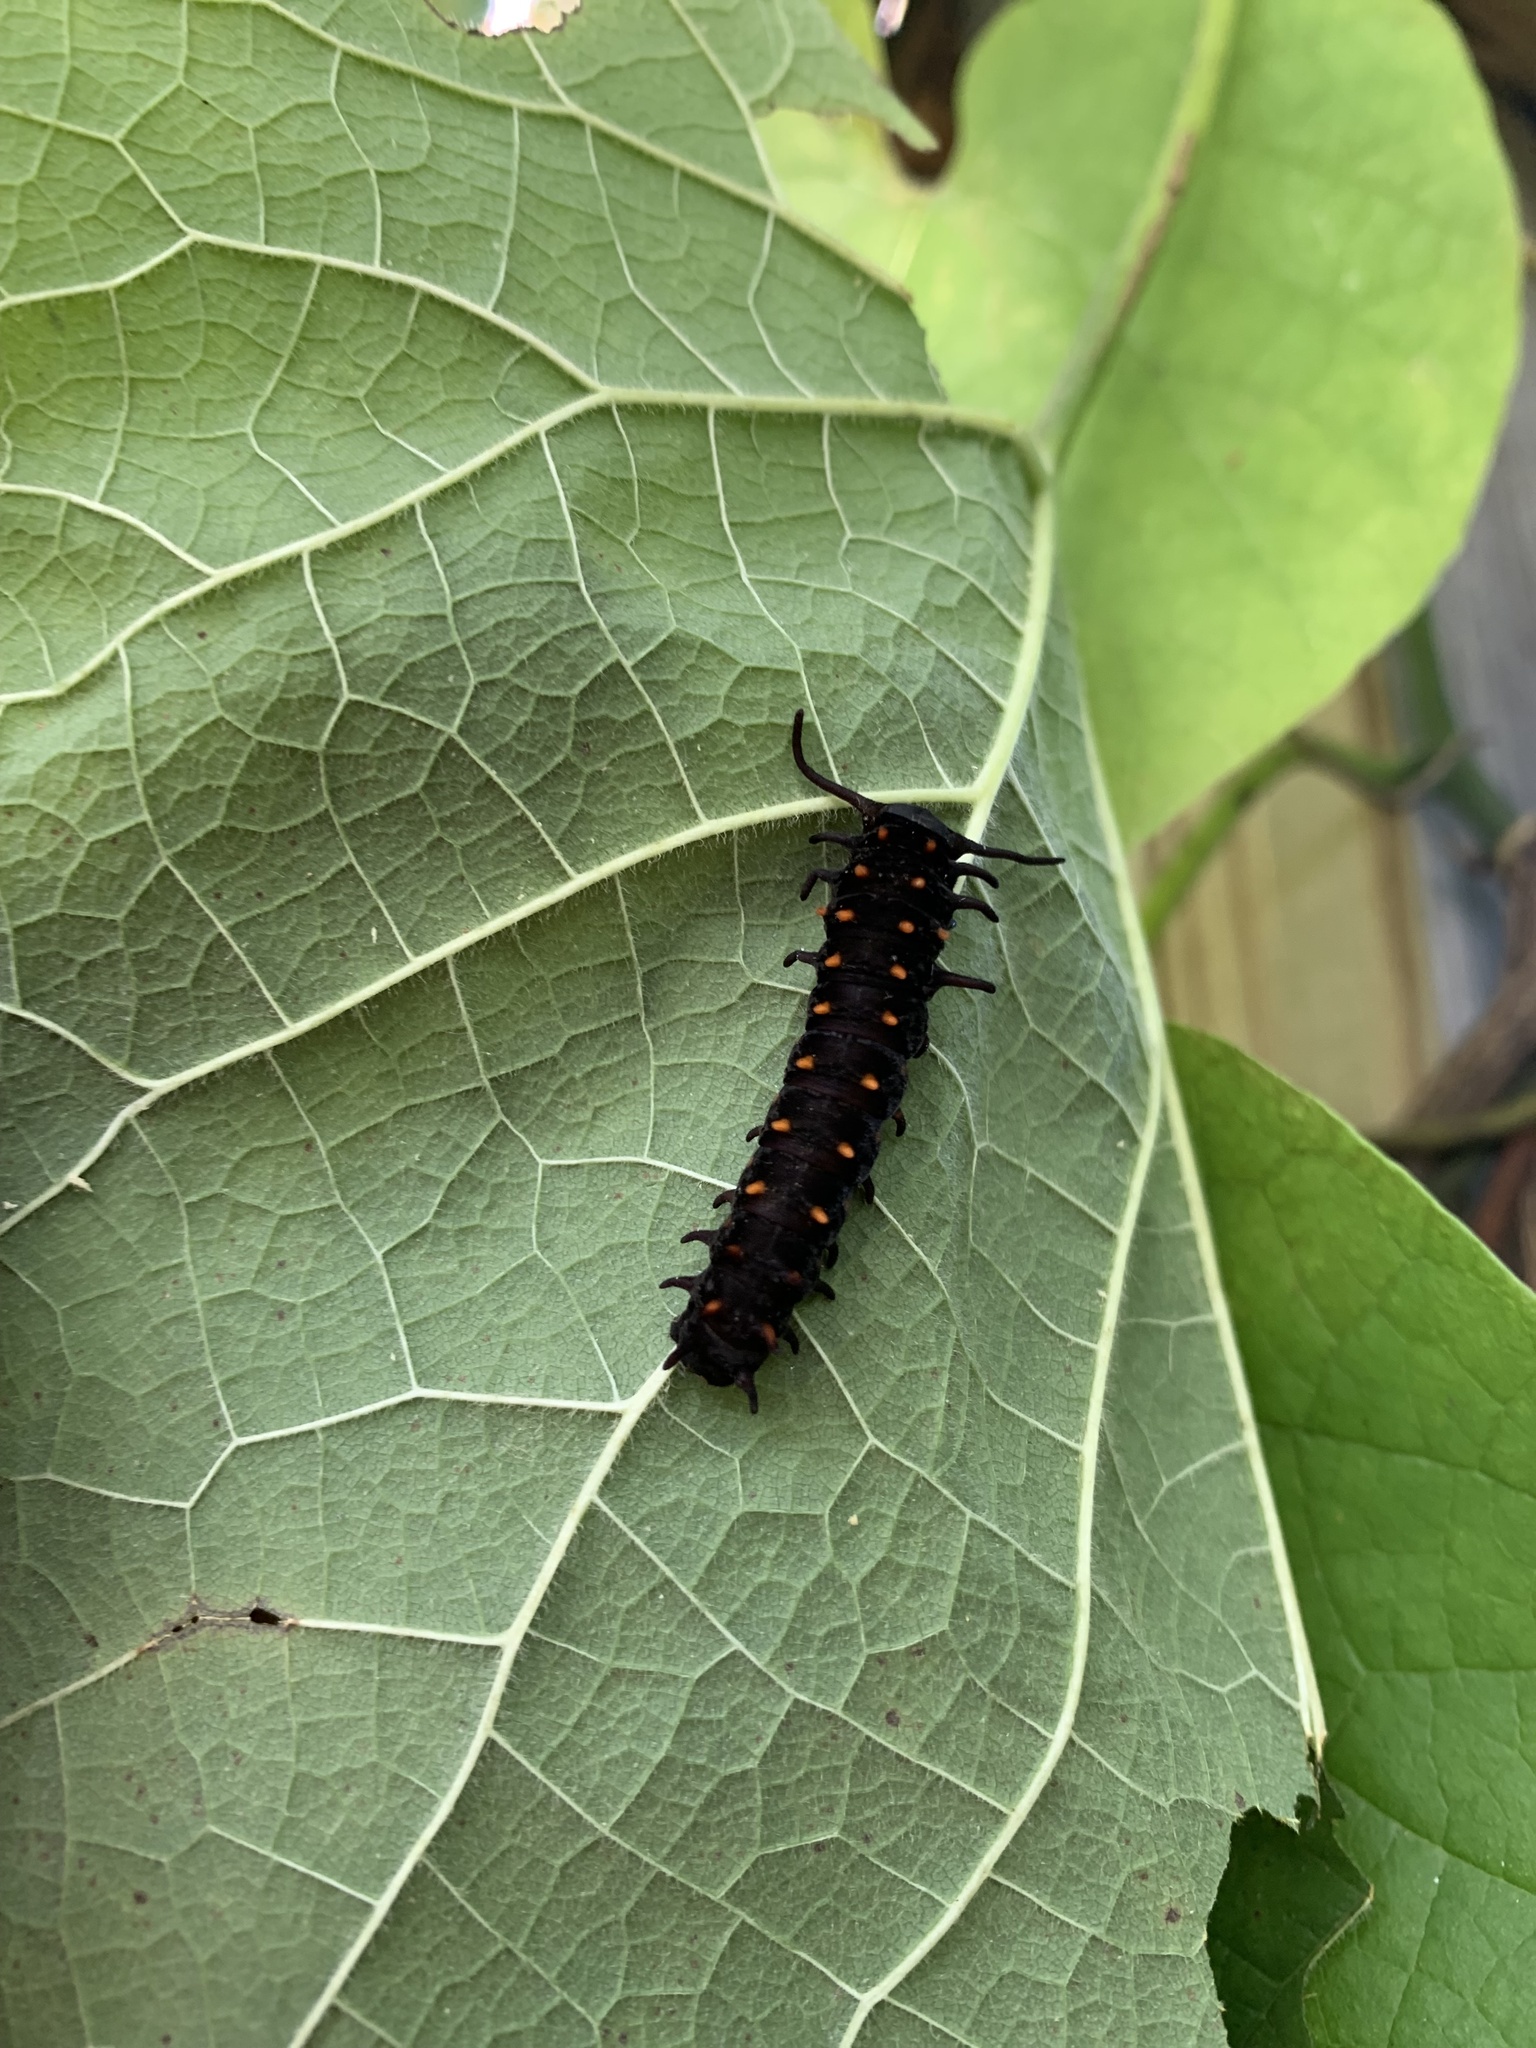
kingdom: Animalia
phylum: Arthropoda
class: Insecta
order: Lepidoptera
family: Papilionidae
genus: Battus
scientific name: Battus philenor
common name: Pipevine swallowtail
